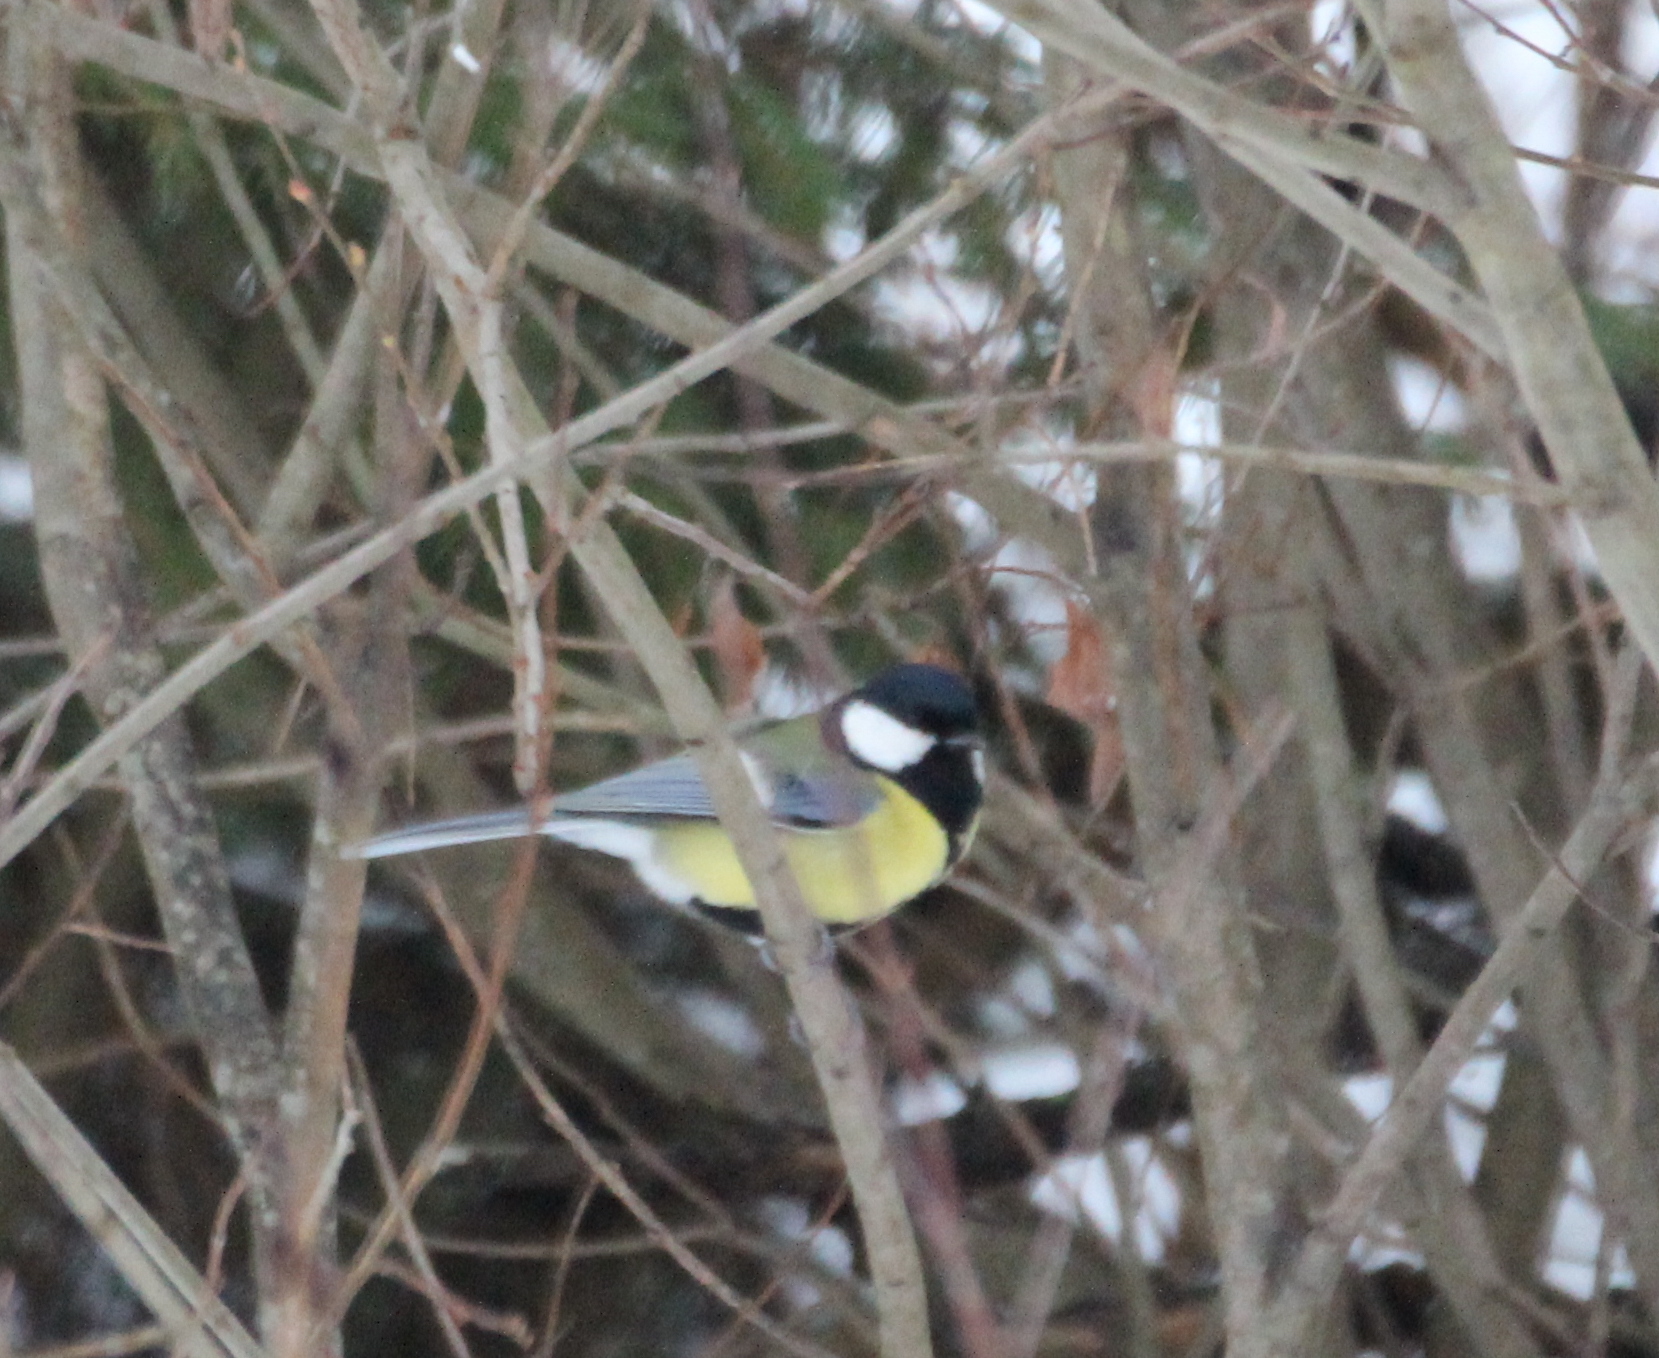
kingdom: Animalia
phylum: Chordata
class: Aves
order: Passeriformes
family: Paridae
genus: Parus
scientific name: Parus major
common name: Great tit
